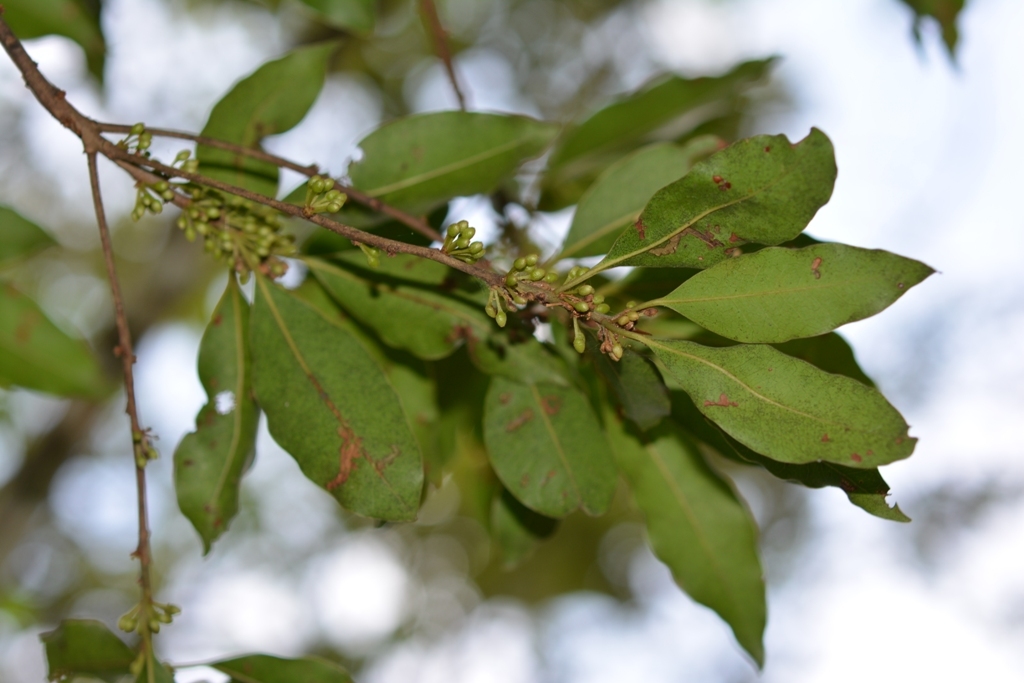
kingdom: Plantae
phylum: Tracheophyta
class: Magnoliopsida
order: Ericales
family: Sapotaceae
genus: Sideroxylon
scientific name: Sideroxylon salicifolium
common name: White bully
